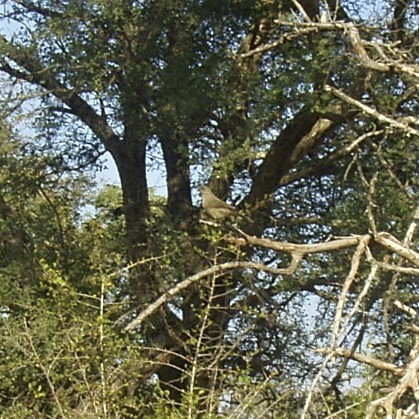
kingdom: Animalia
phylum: Chordata
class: Aves
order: Passeriformes
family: Leiothrichidae
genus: Turdoides
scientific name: Turdoides jardineii
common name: Arrow-marked babbler
